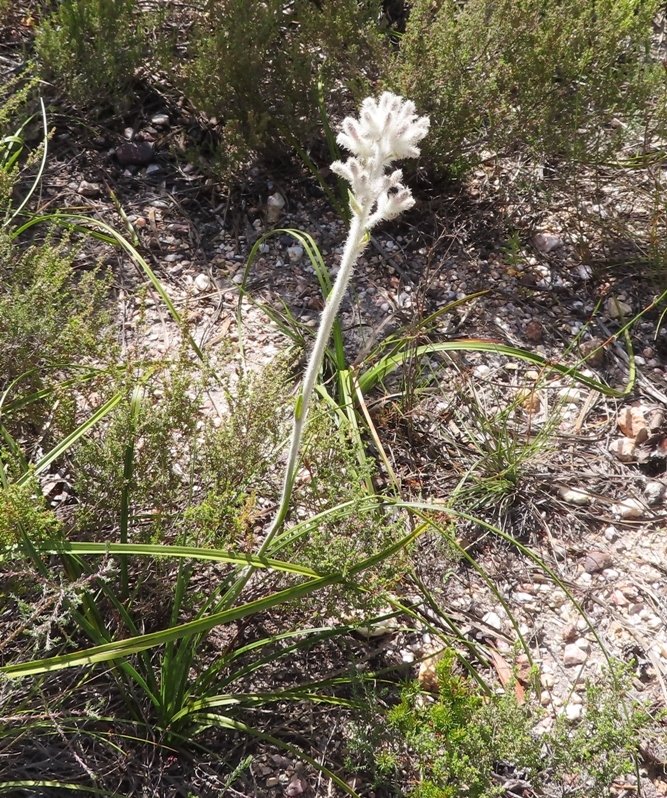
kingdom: Plantae
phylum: Tracheophyta
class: Liliopsida
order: Asparagales
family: Lanariaceae
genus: Lanaria
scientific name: Lanaria lanata
